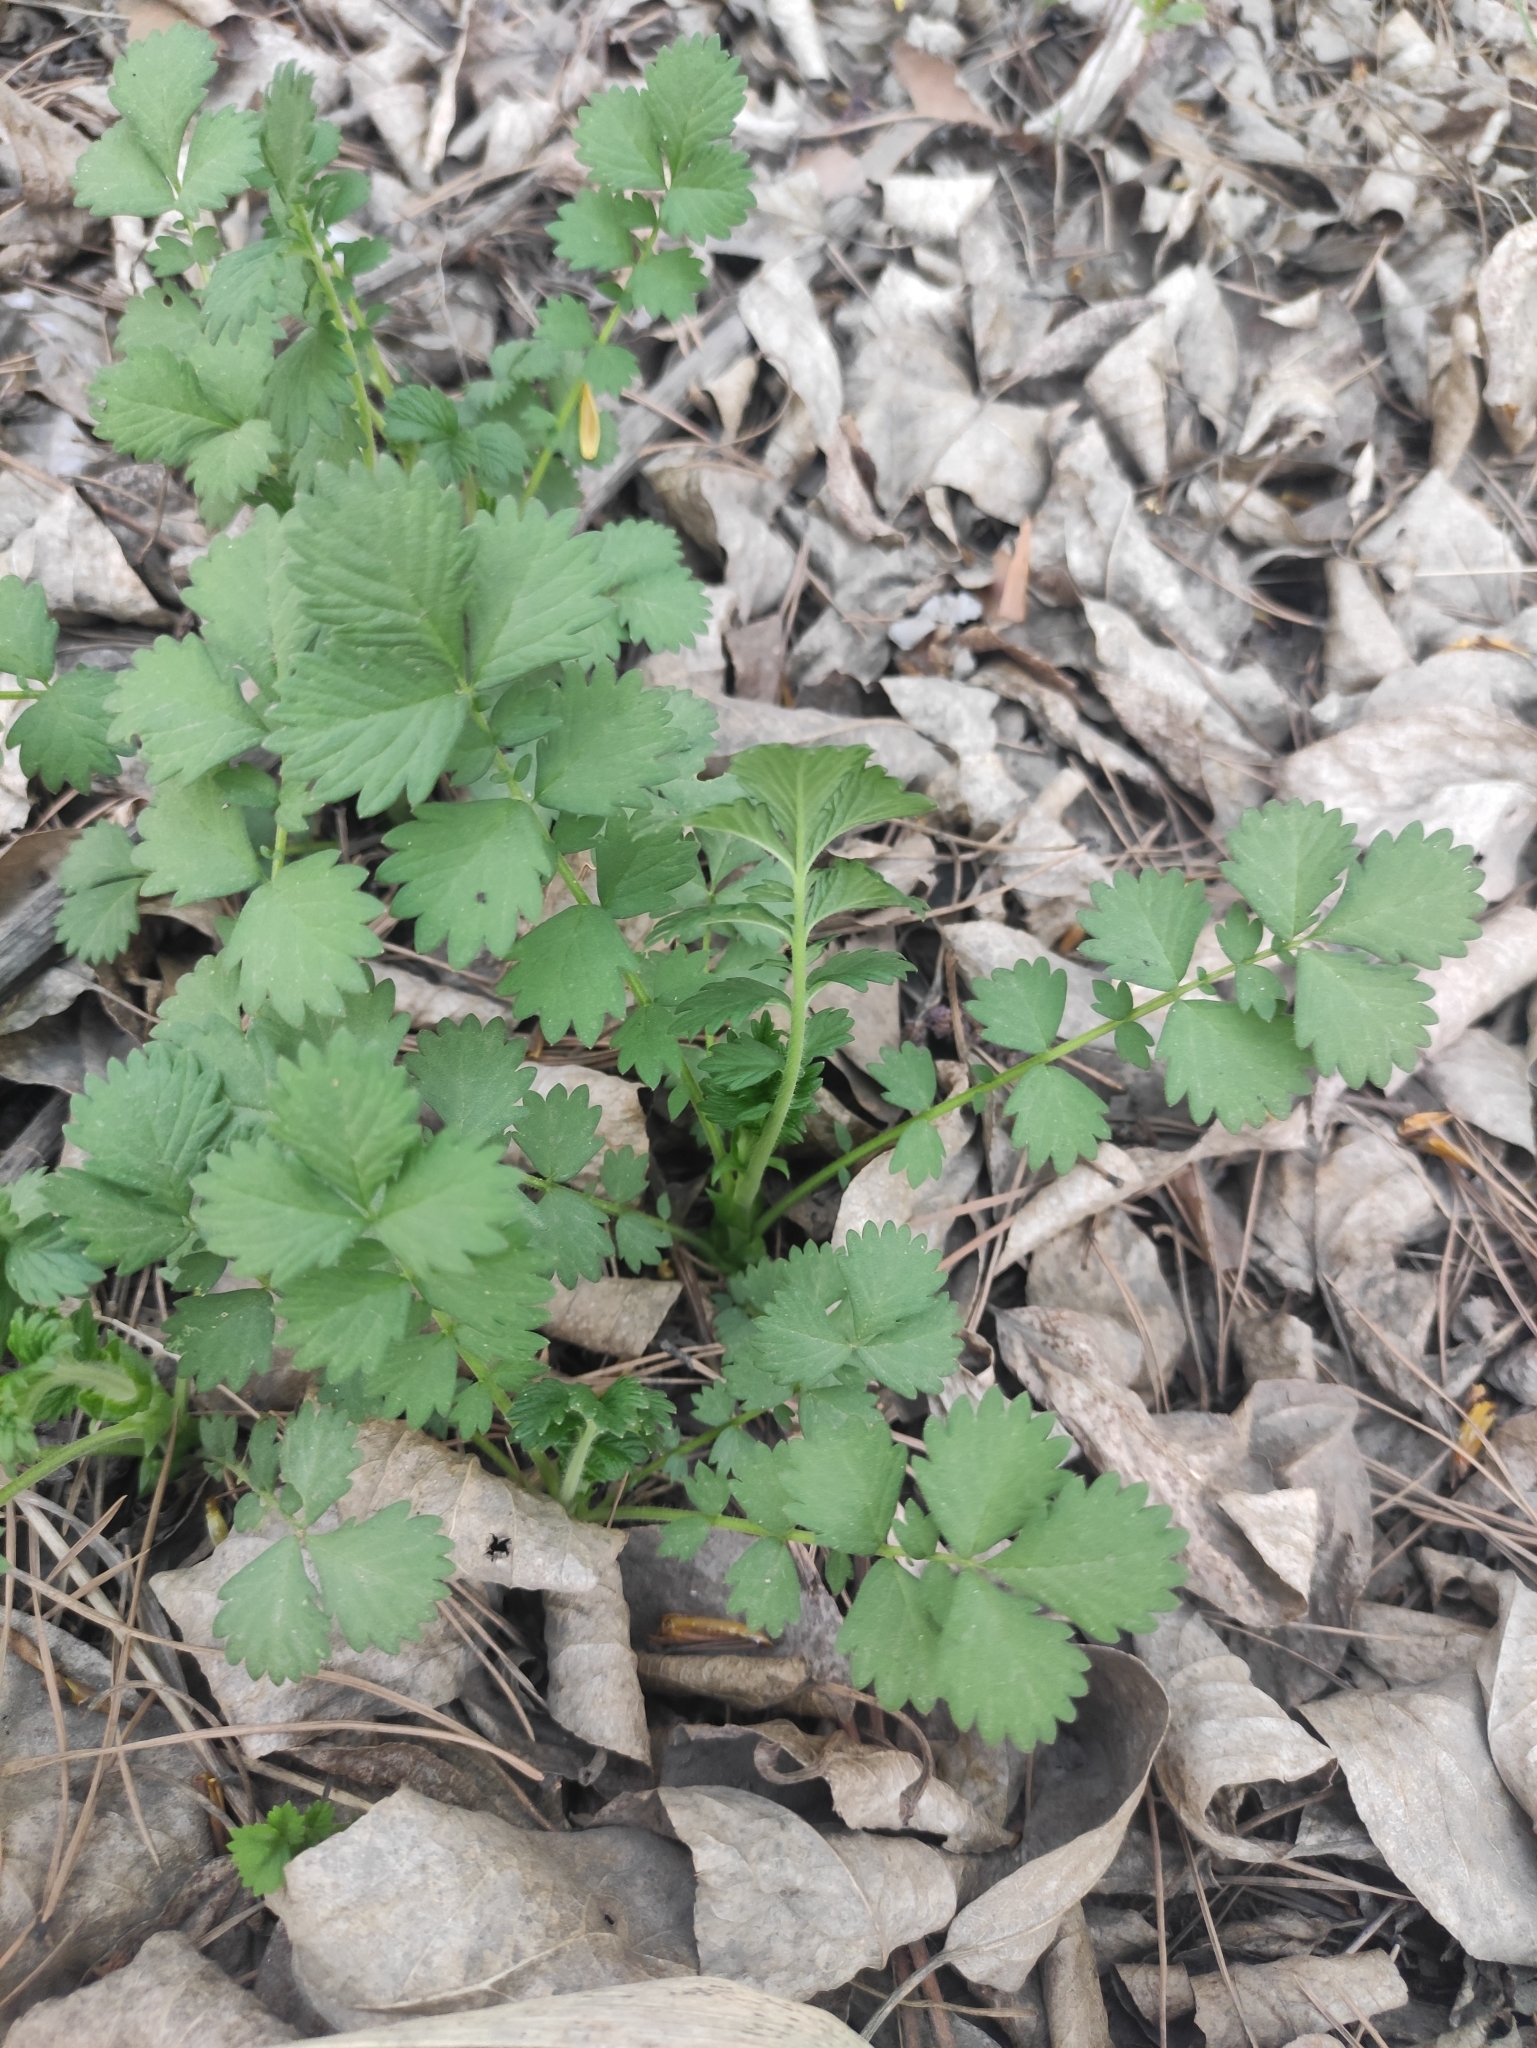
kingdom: Plantae
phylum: Tracheophyta
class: Magnoliopsida
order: Rosales
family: Rosaceae
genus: Agrimonia
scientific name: Agrimonia pilosa
